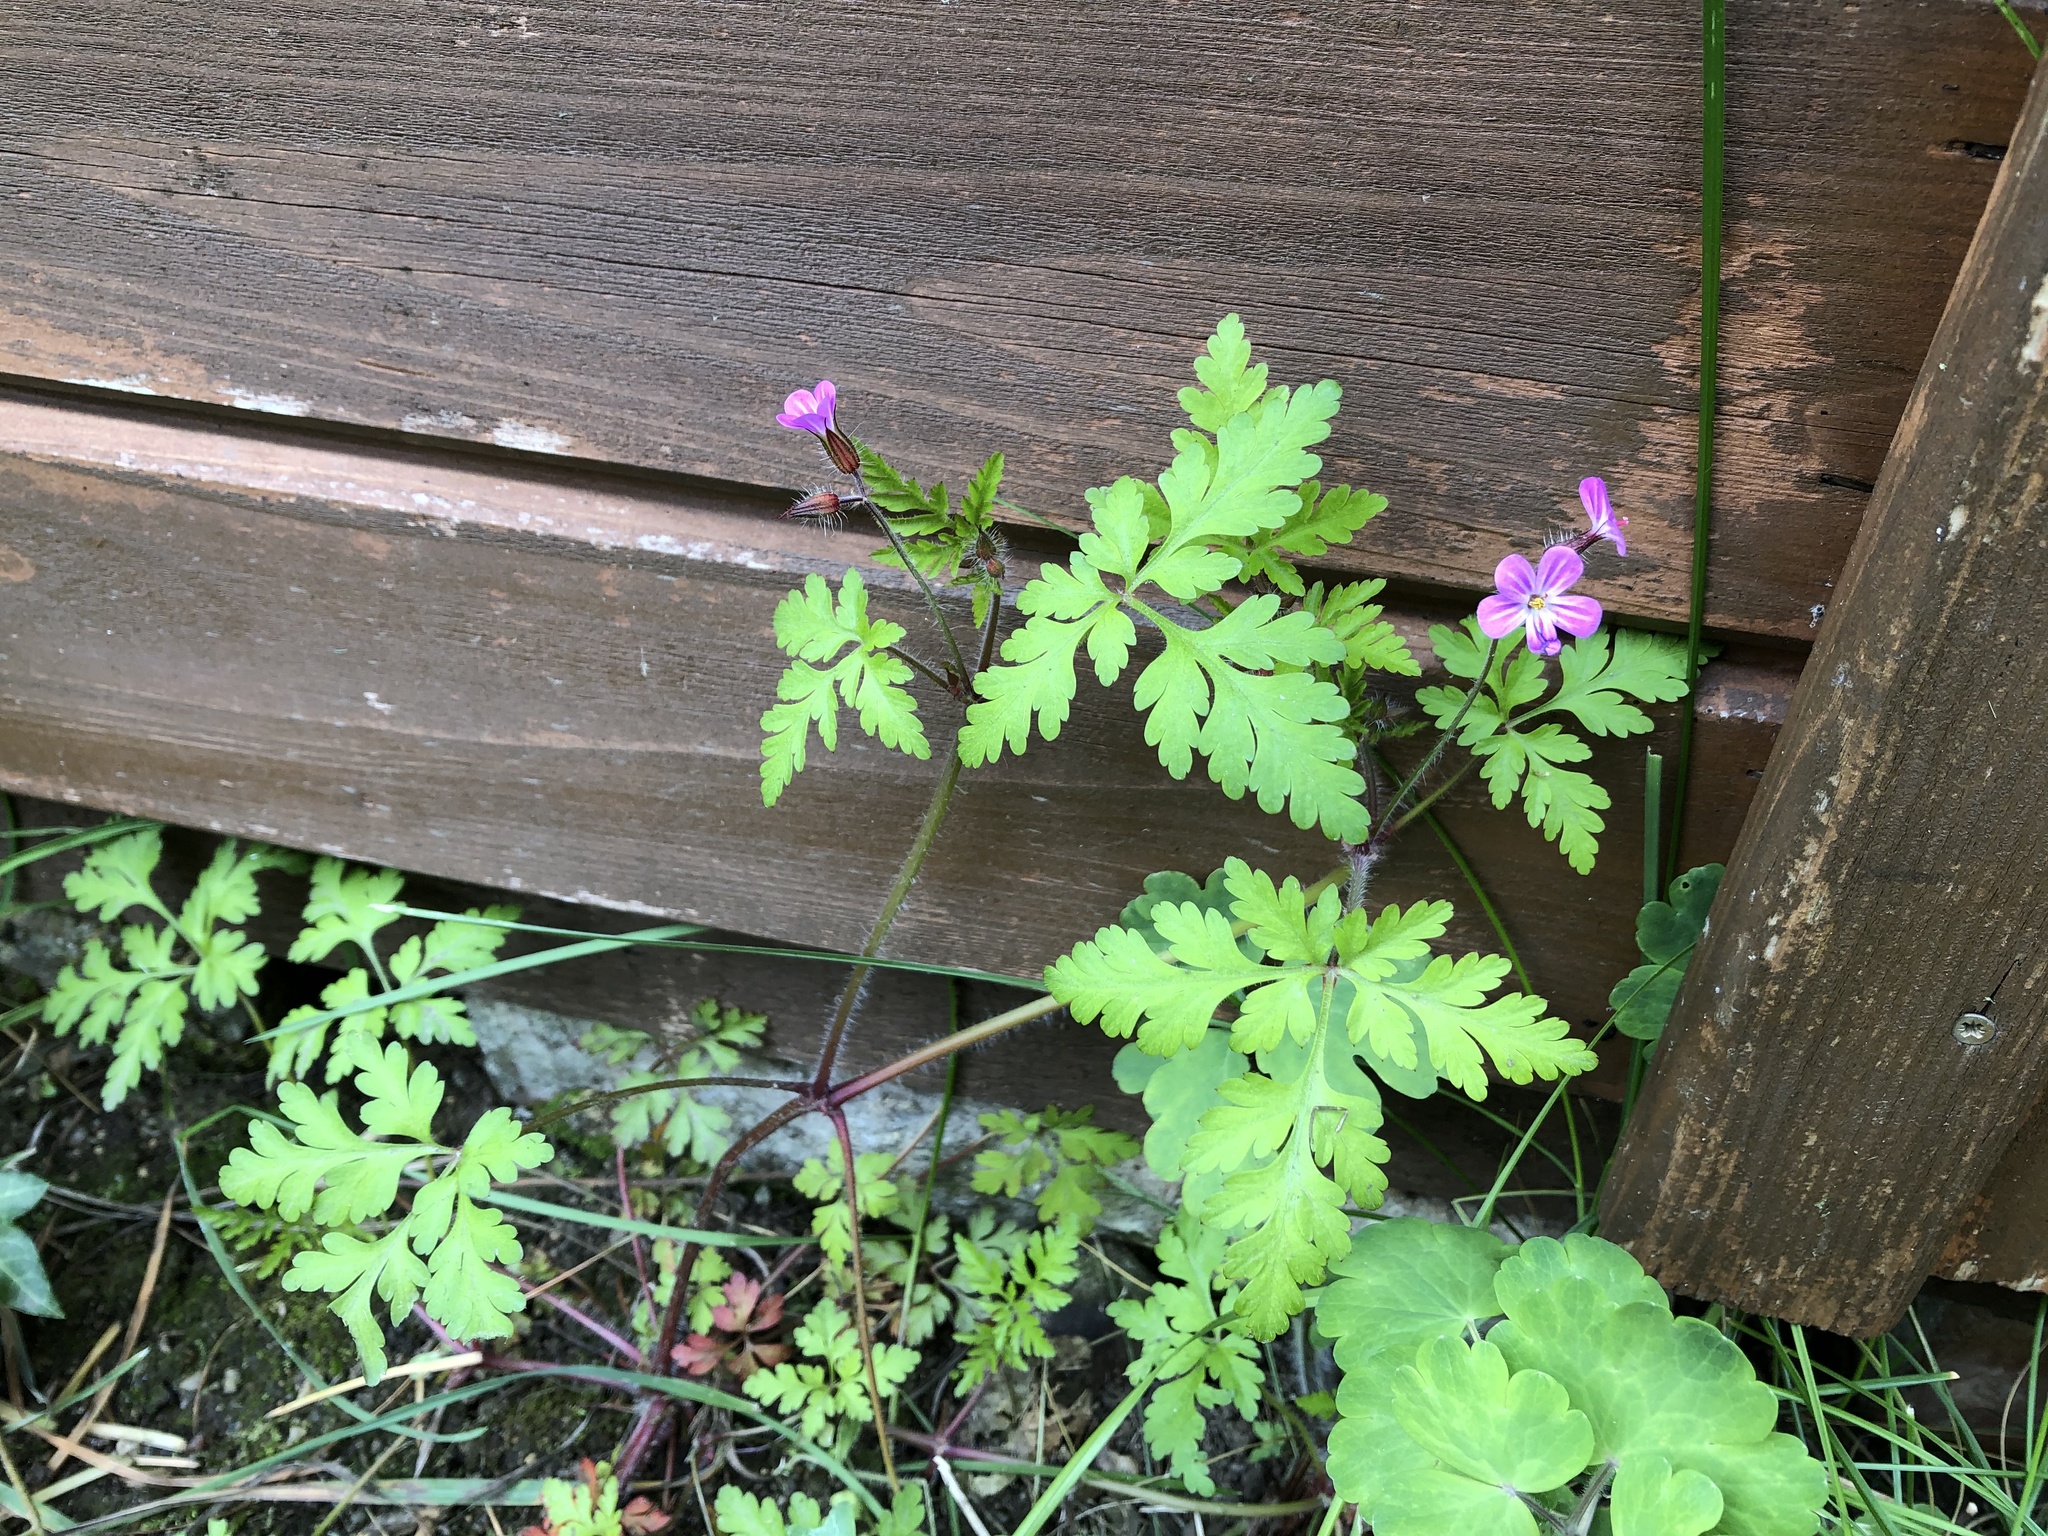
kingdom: Plantae
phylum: Tracheophyta
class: Magnoliopsida
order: Geraniales
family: Geraniaceae
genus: Geranium
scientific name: Geranium robertianum
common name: Herb-robert
